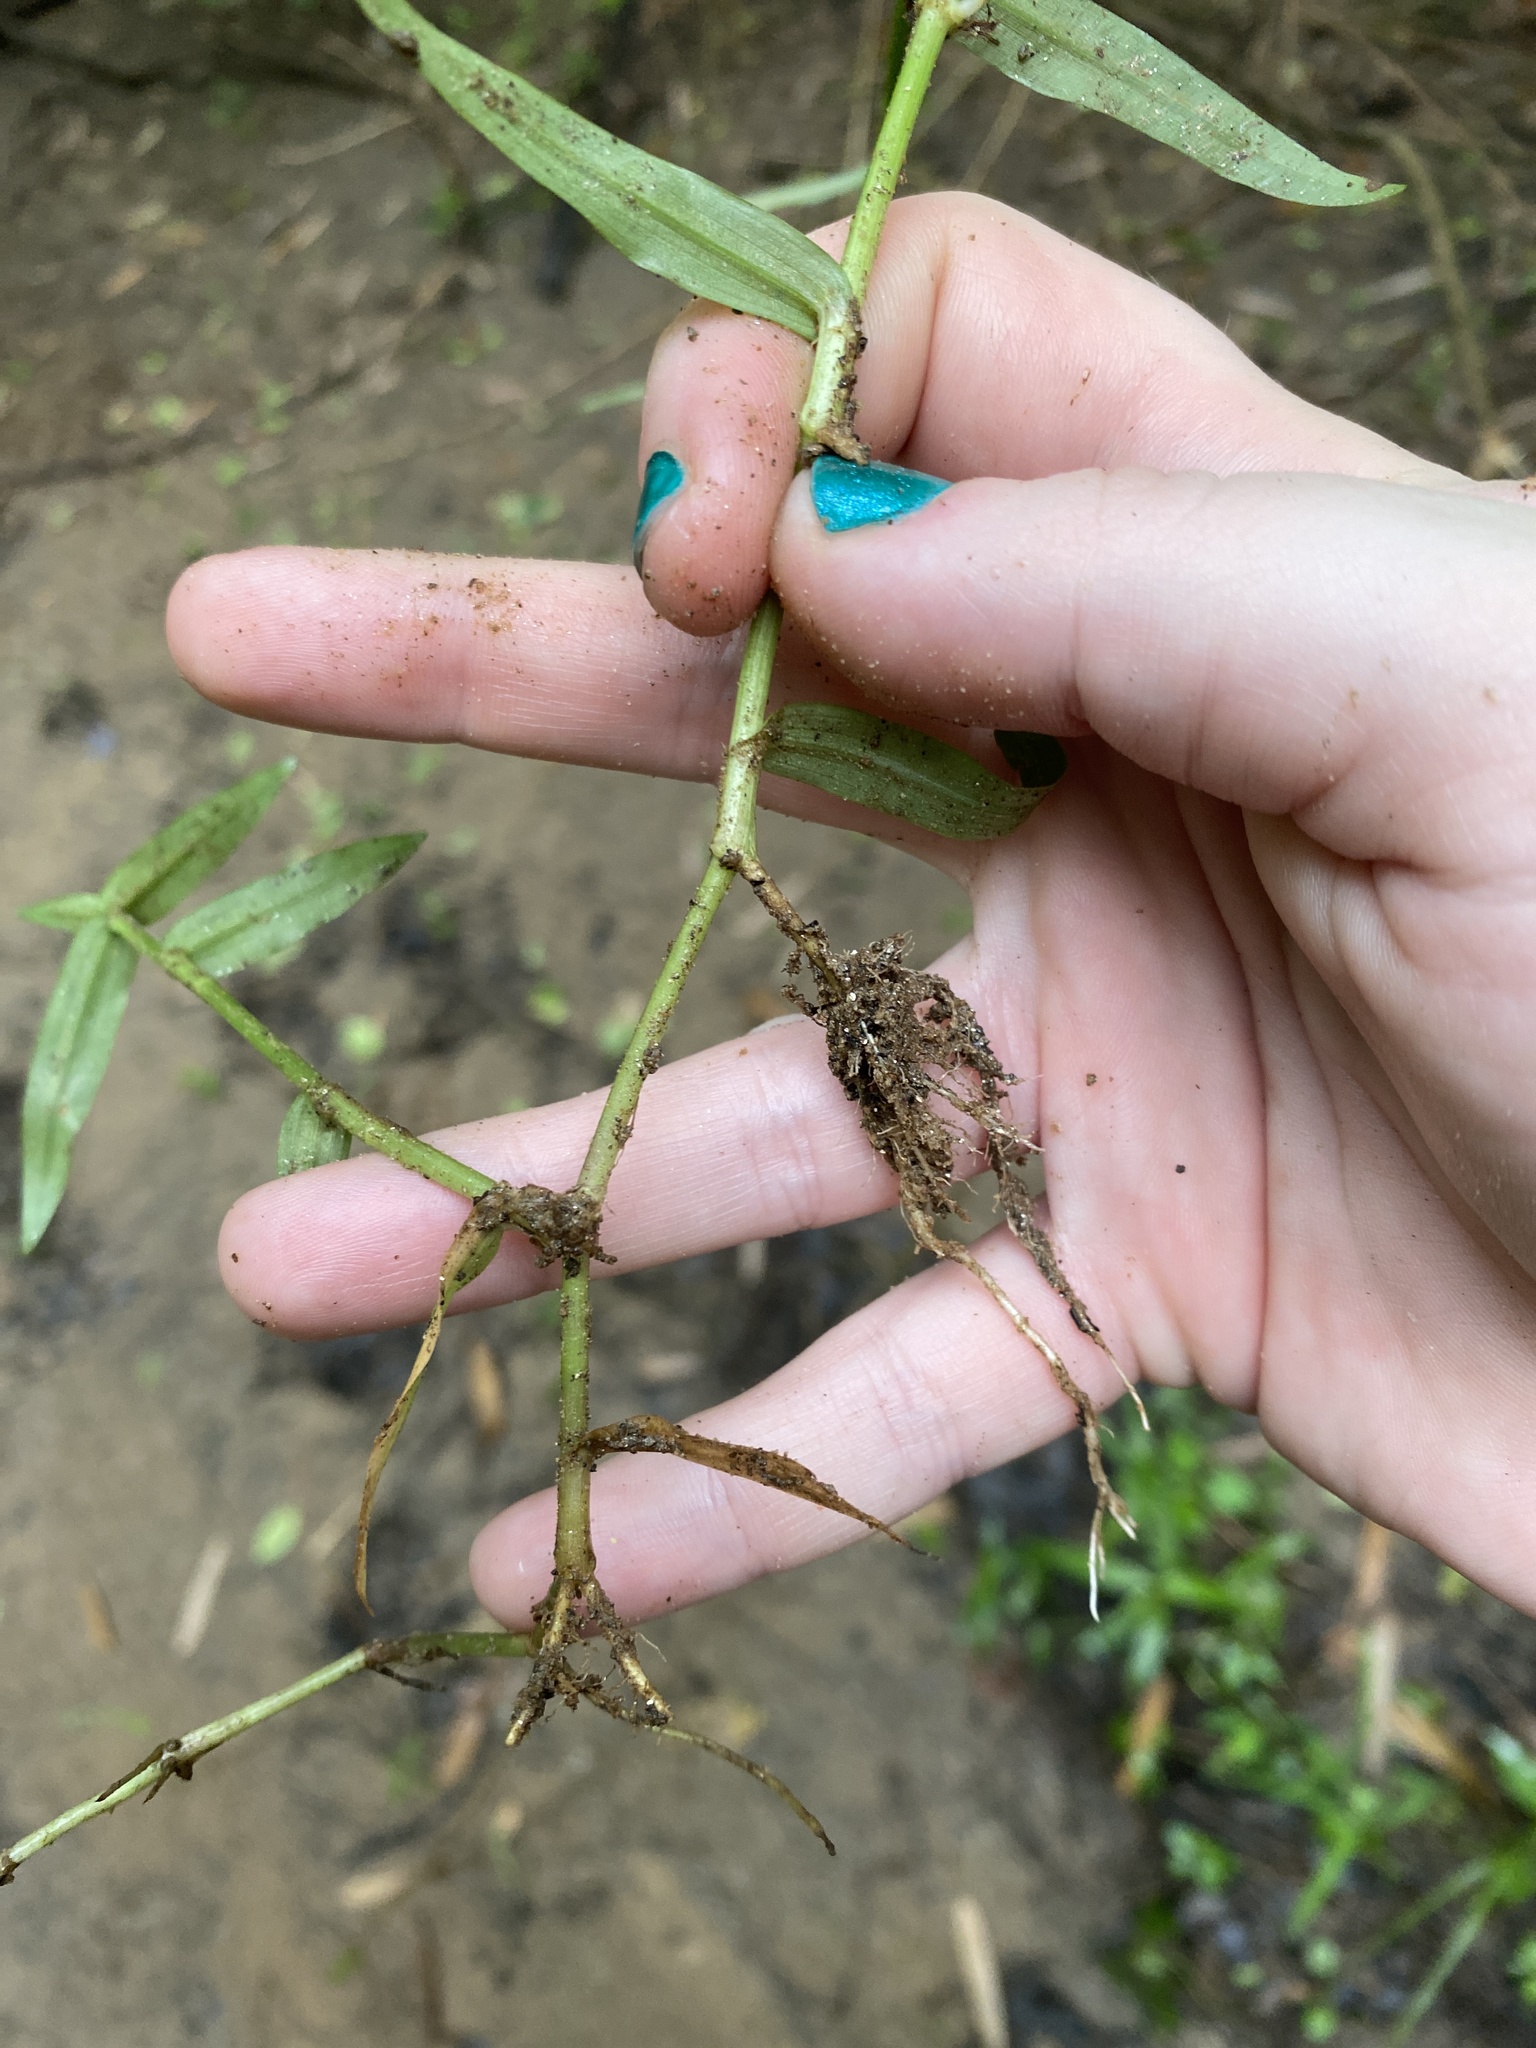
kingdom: Plantae
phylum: Tracheophyta
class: Liliopsida
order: Commelinales
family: Commelinaceae
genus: Murdannia
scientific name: Murdannia keisak
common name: Wartremoving herb
